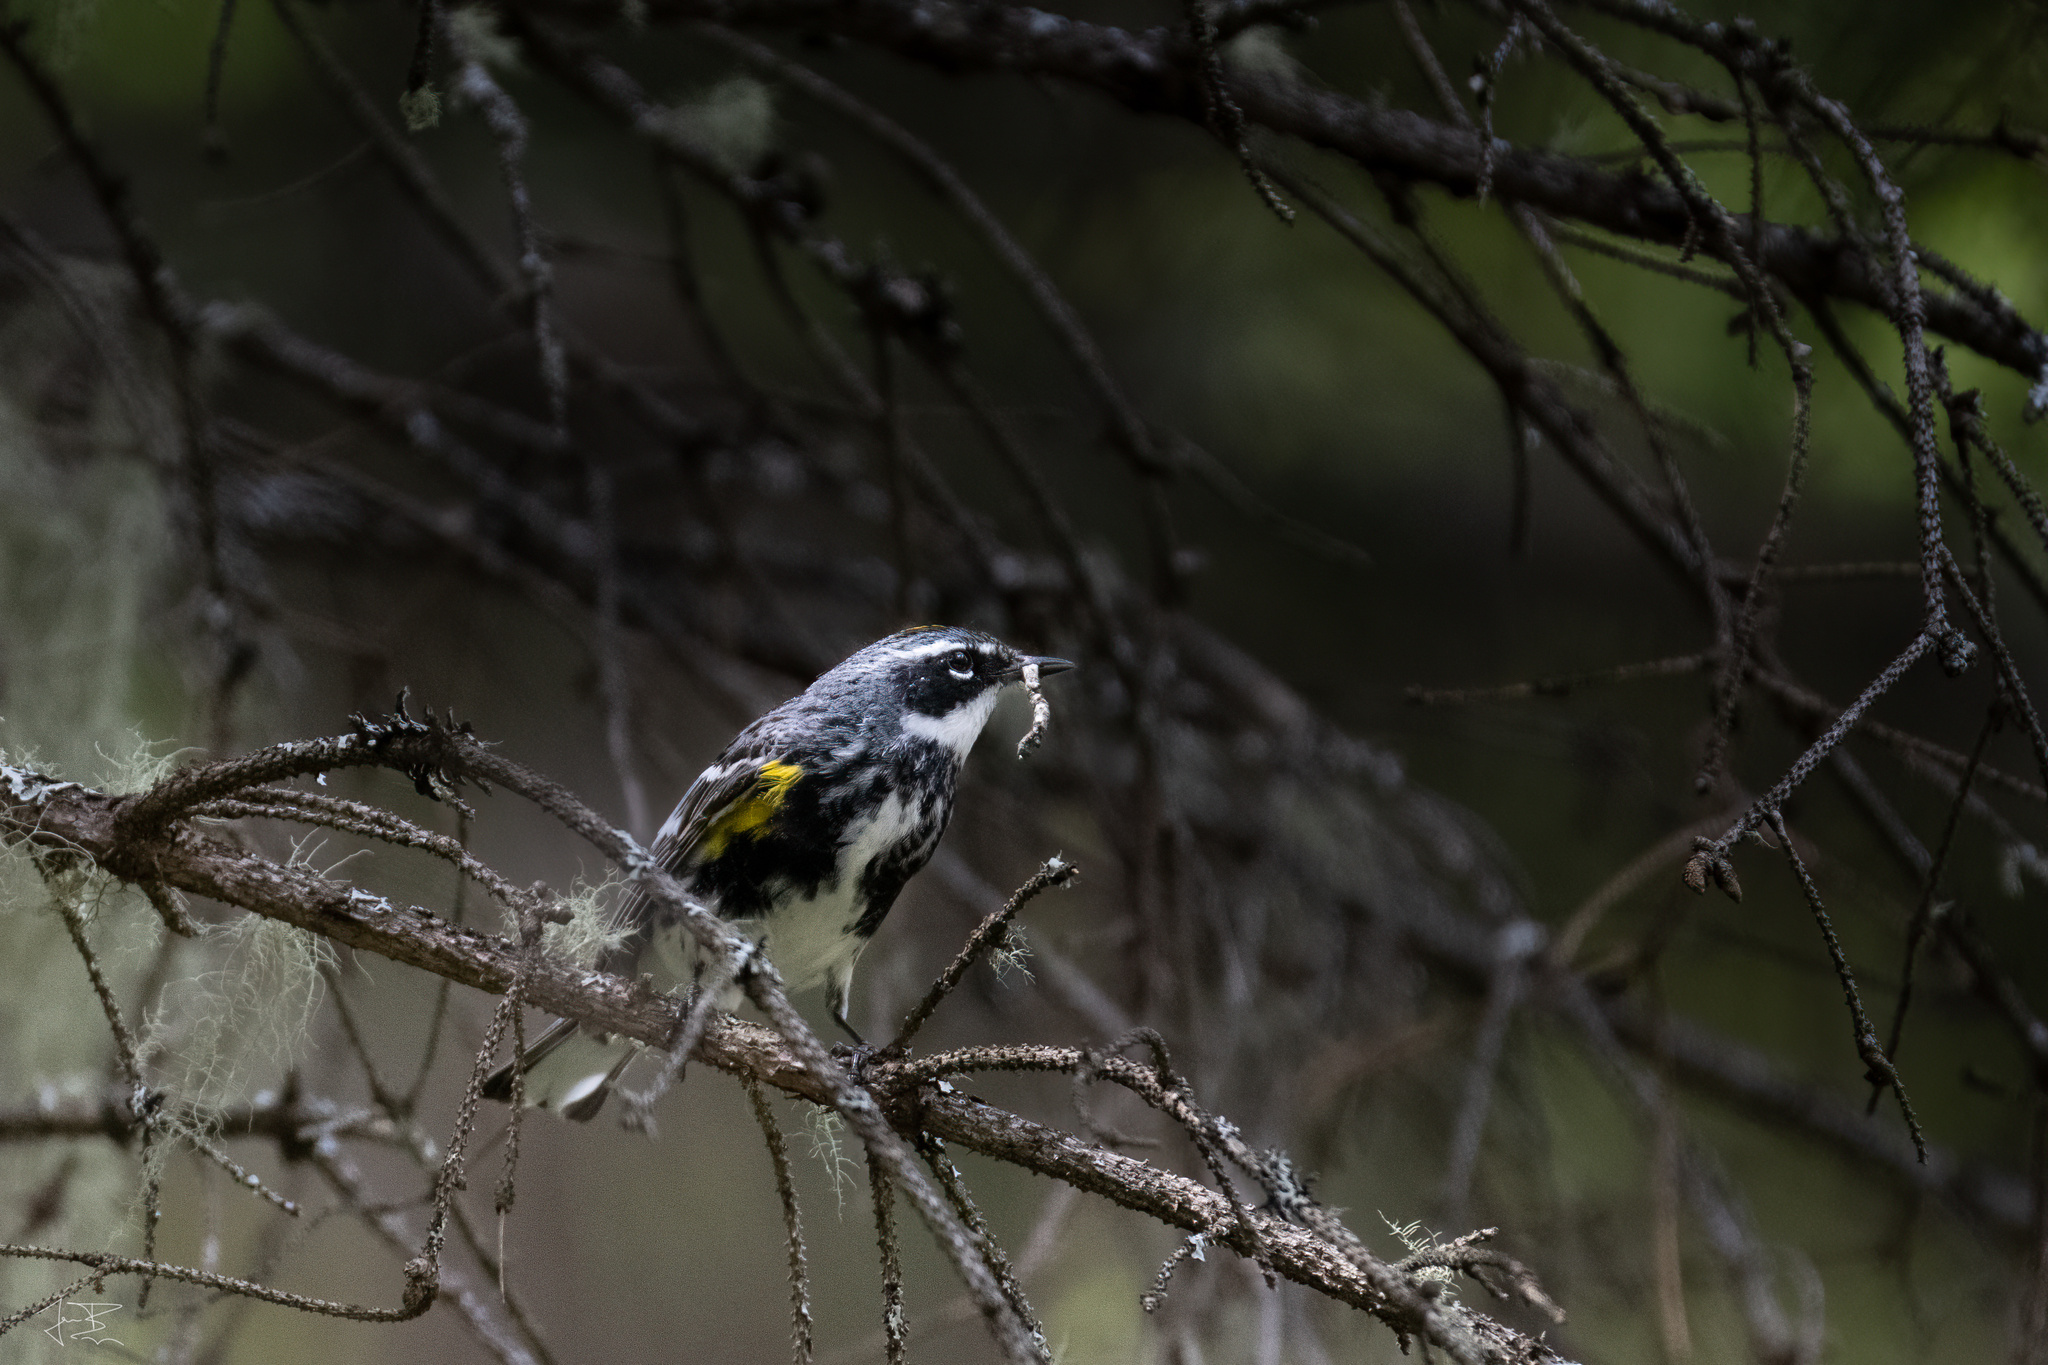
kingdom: Animalia
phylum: Chordata
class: Aves
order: Passeriformes
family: Parulidae
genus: Setophaga
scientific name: Setophaga coronata
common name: Myrtle warbler
